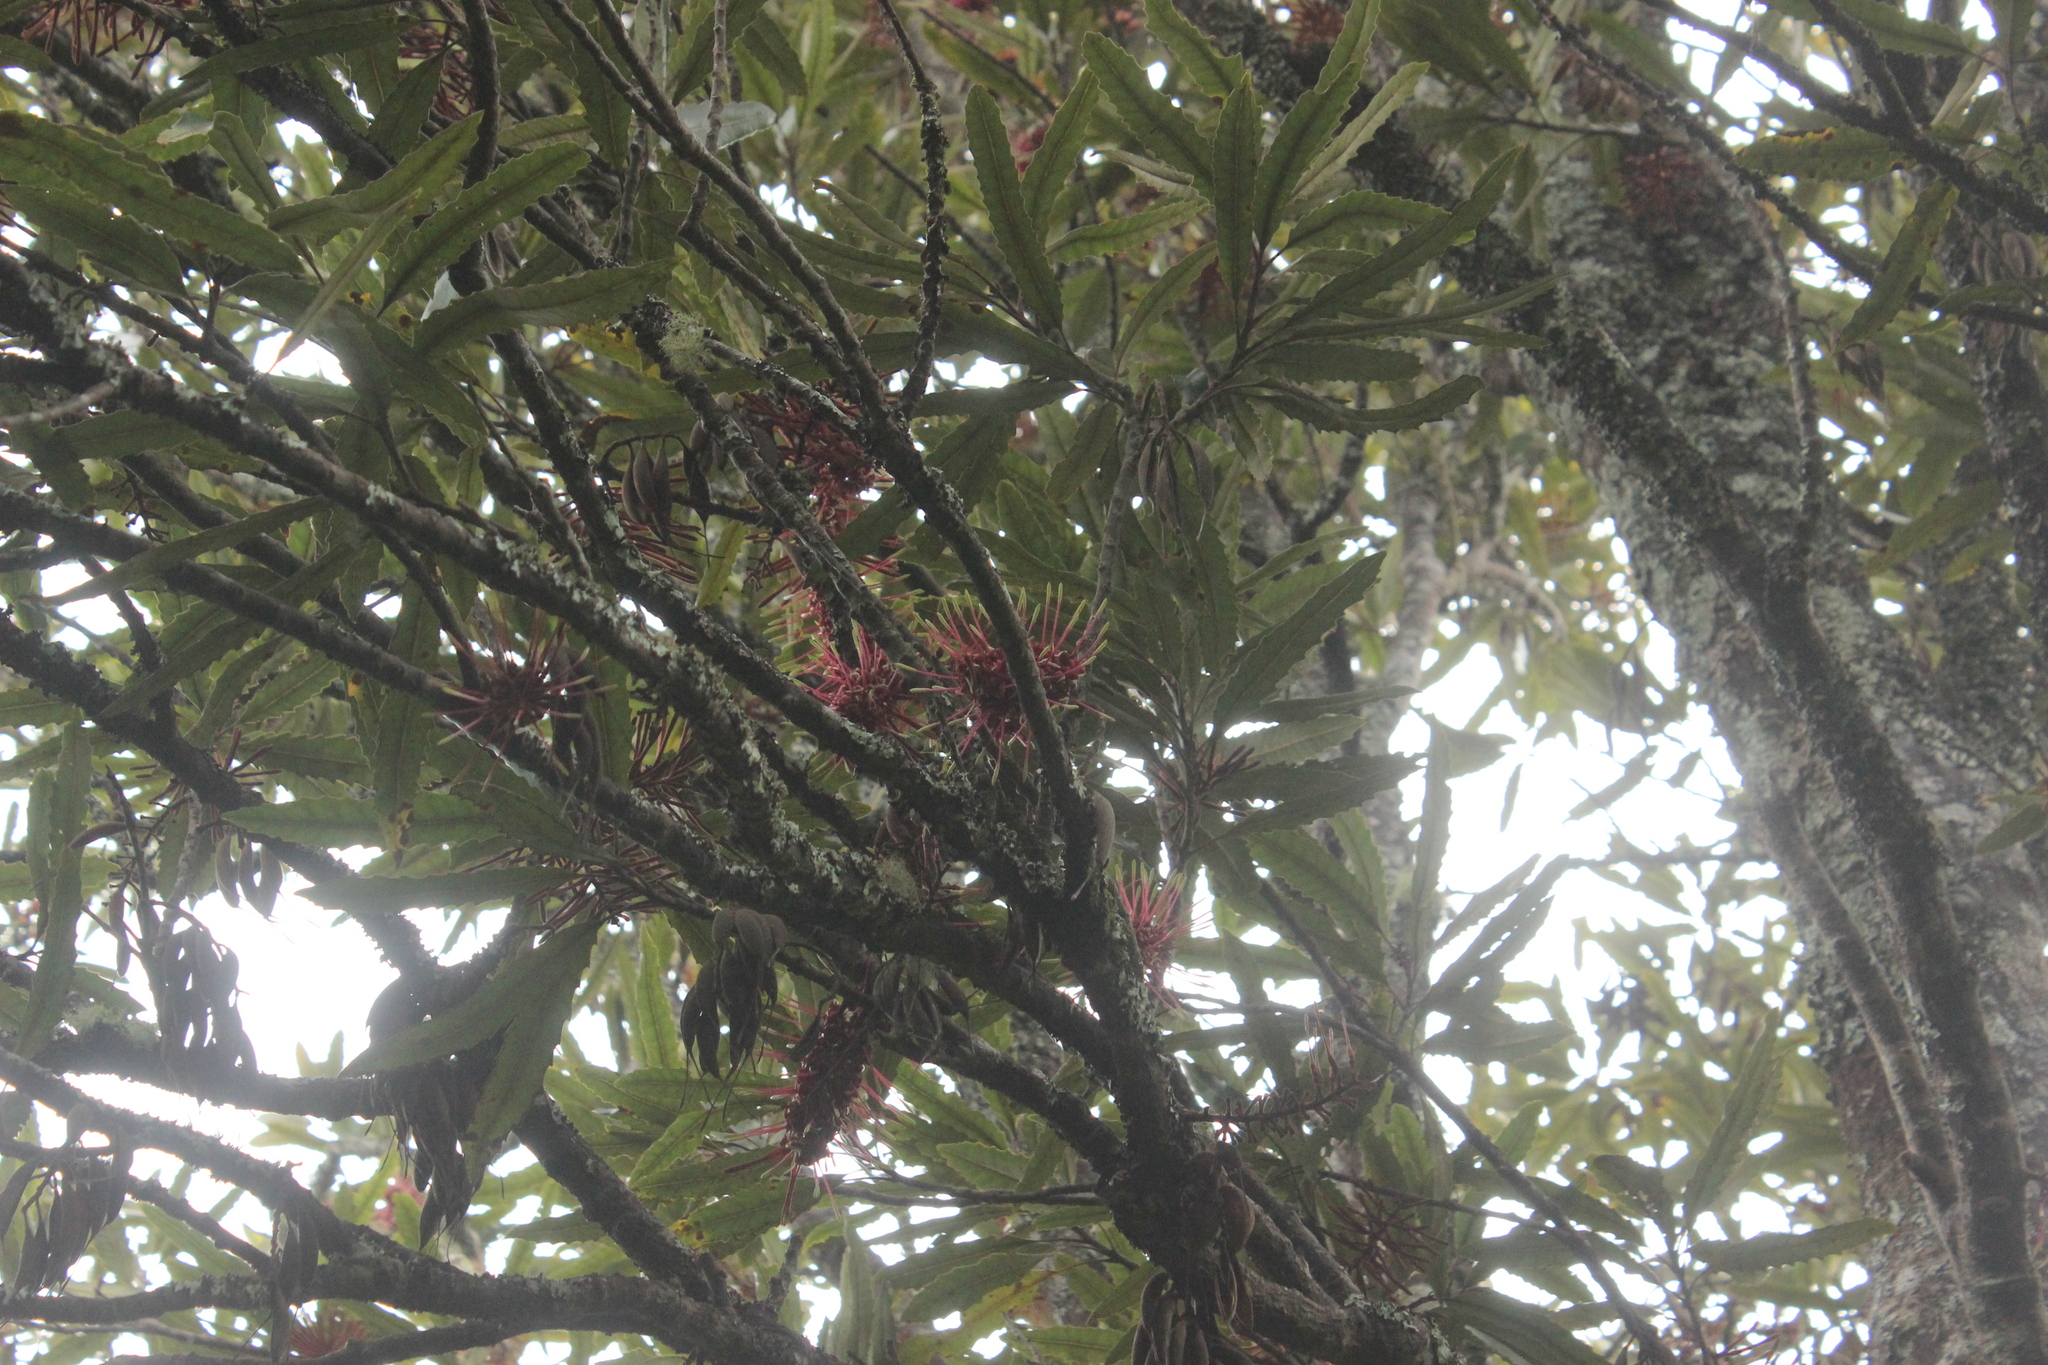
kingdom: Plantae
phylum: Tracheophyta
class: Magnoliopsida
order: Proteales
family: Proteaceae
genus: Knightia
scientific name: Knightia excelsa
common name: New zealand-honeysuckle
